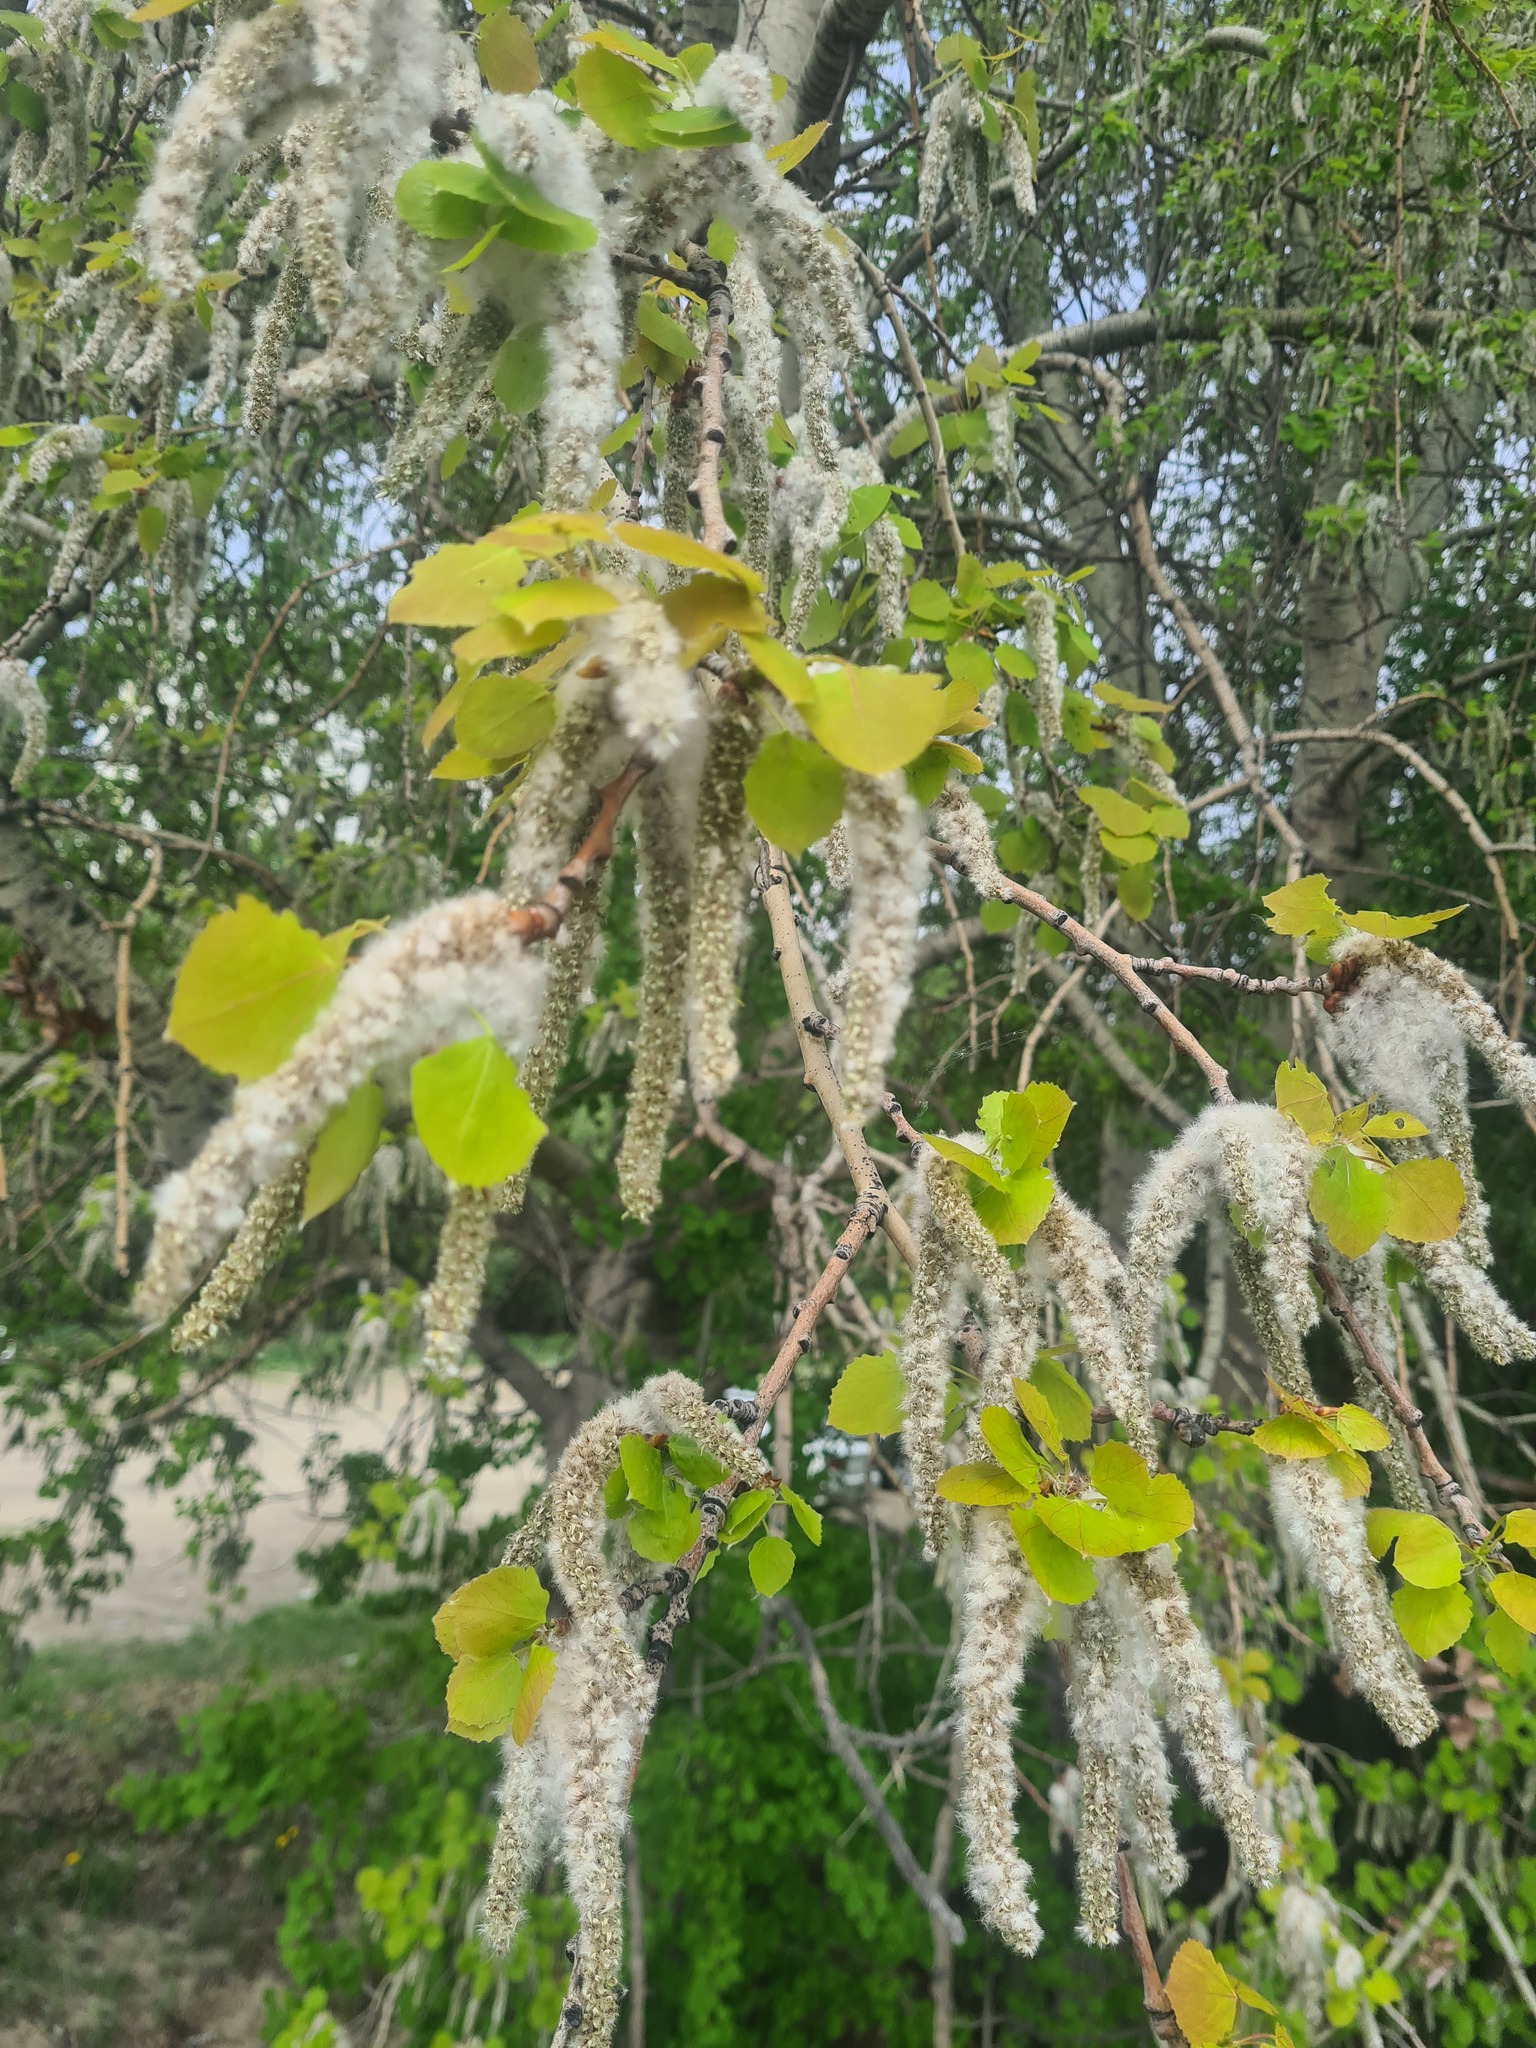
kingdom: Plantae
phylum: Tracheophyta
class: Magnoliopsida
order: Malpighiales
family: Salicaceae
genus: Populus
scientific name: Populus tremula
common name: European aspen
